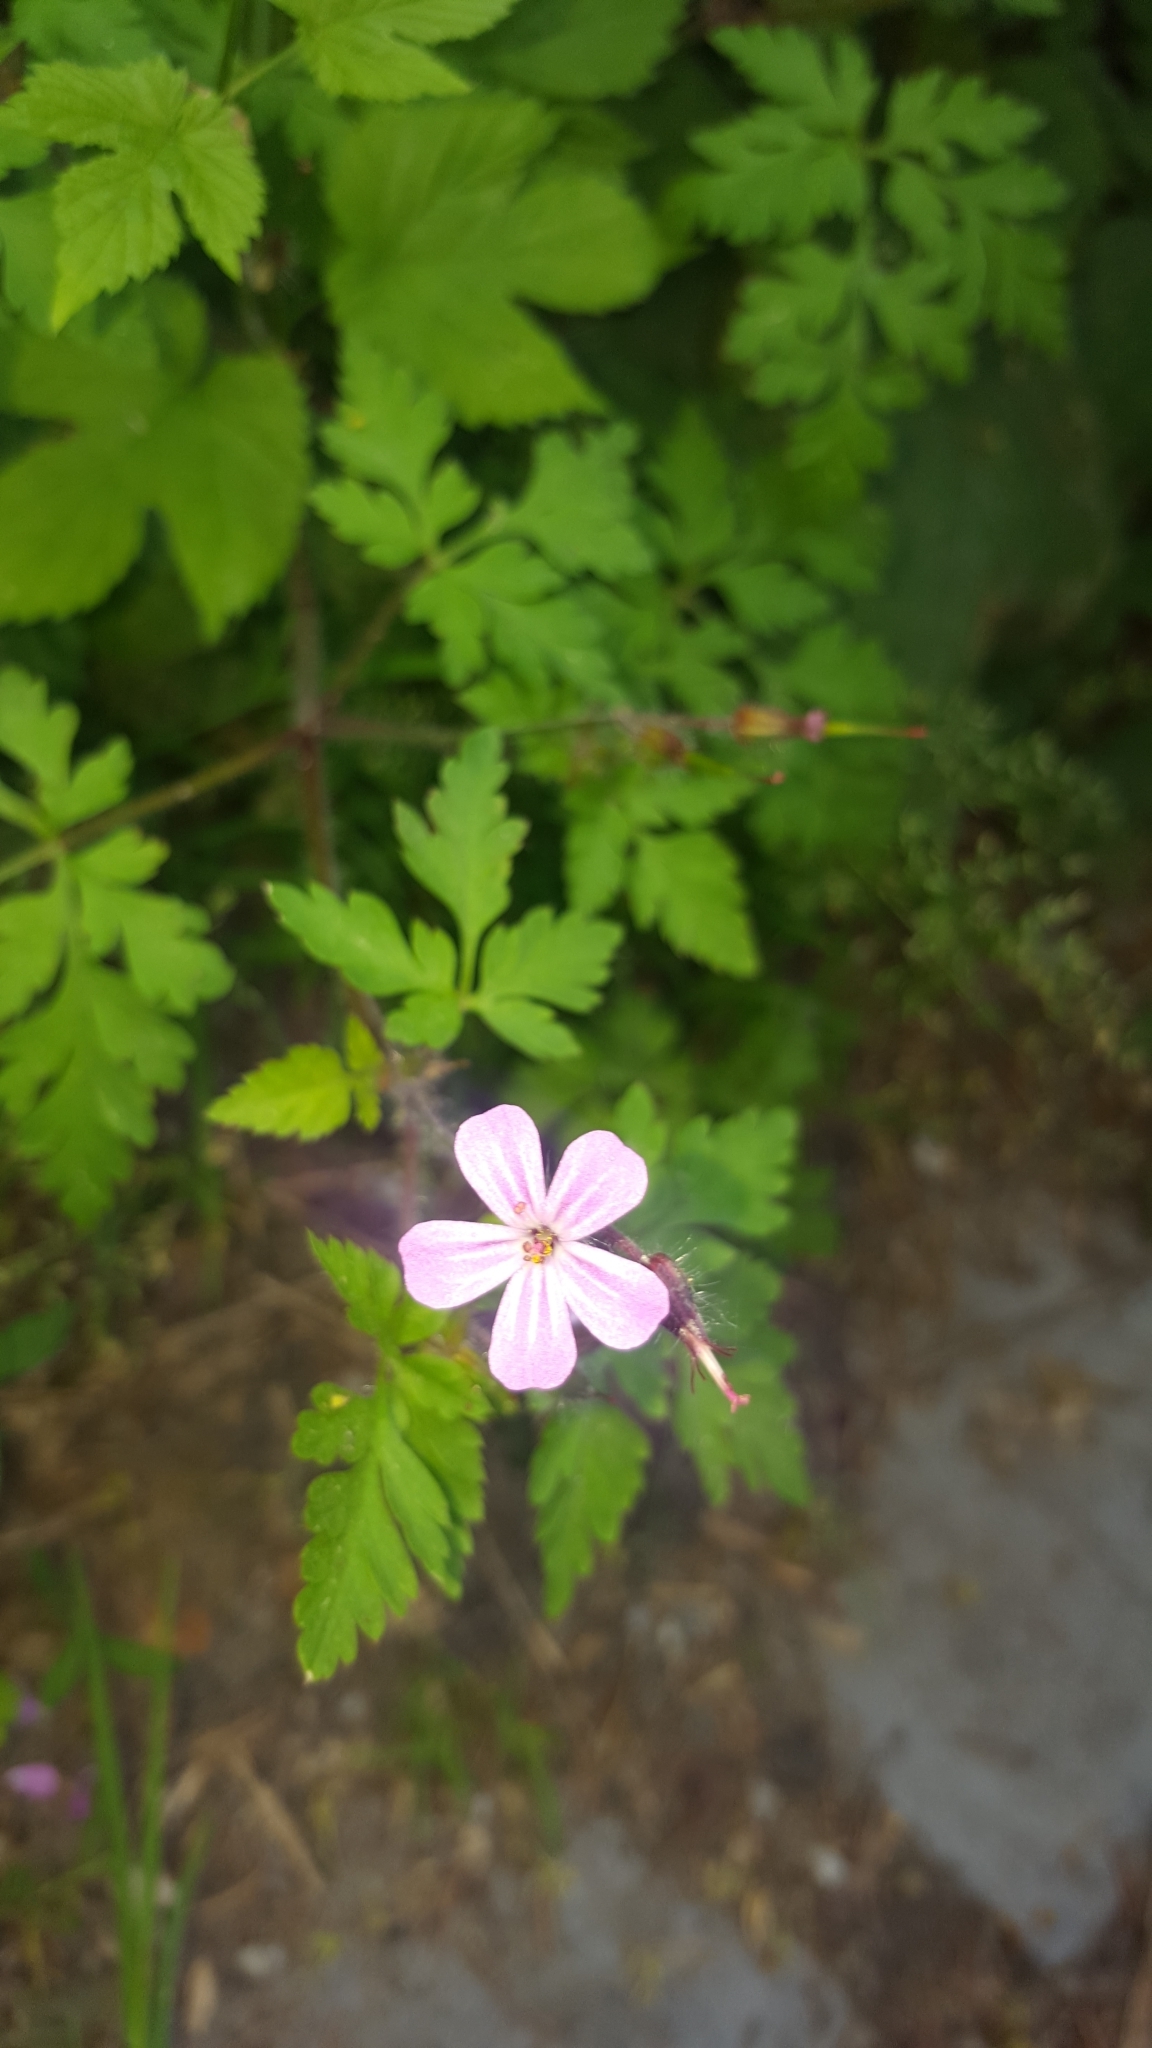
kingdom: Plantae
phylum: Tracheophyta
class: Magnoliopsida
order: Geraniales
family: Geraniaceae
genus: Geranium
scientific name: Geranium robertianum
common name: Herb-robert
